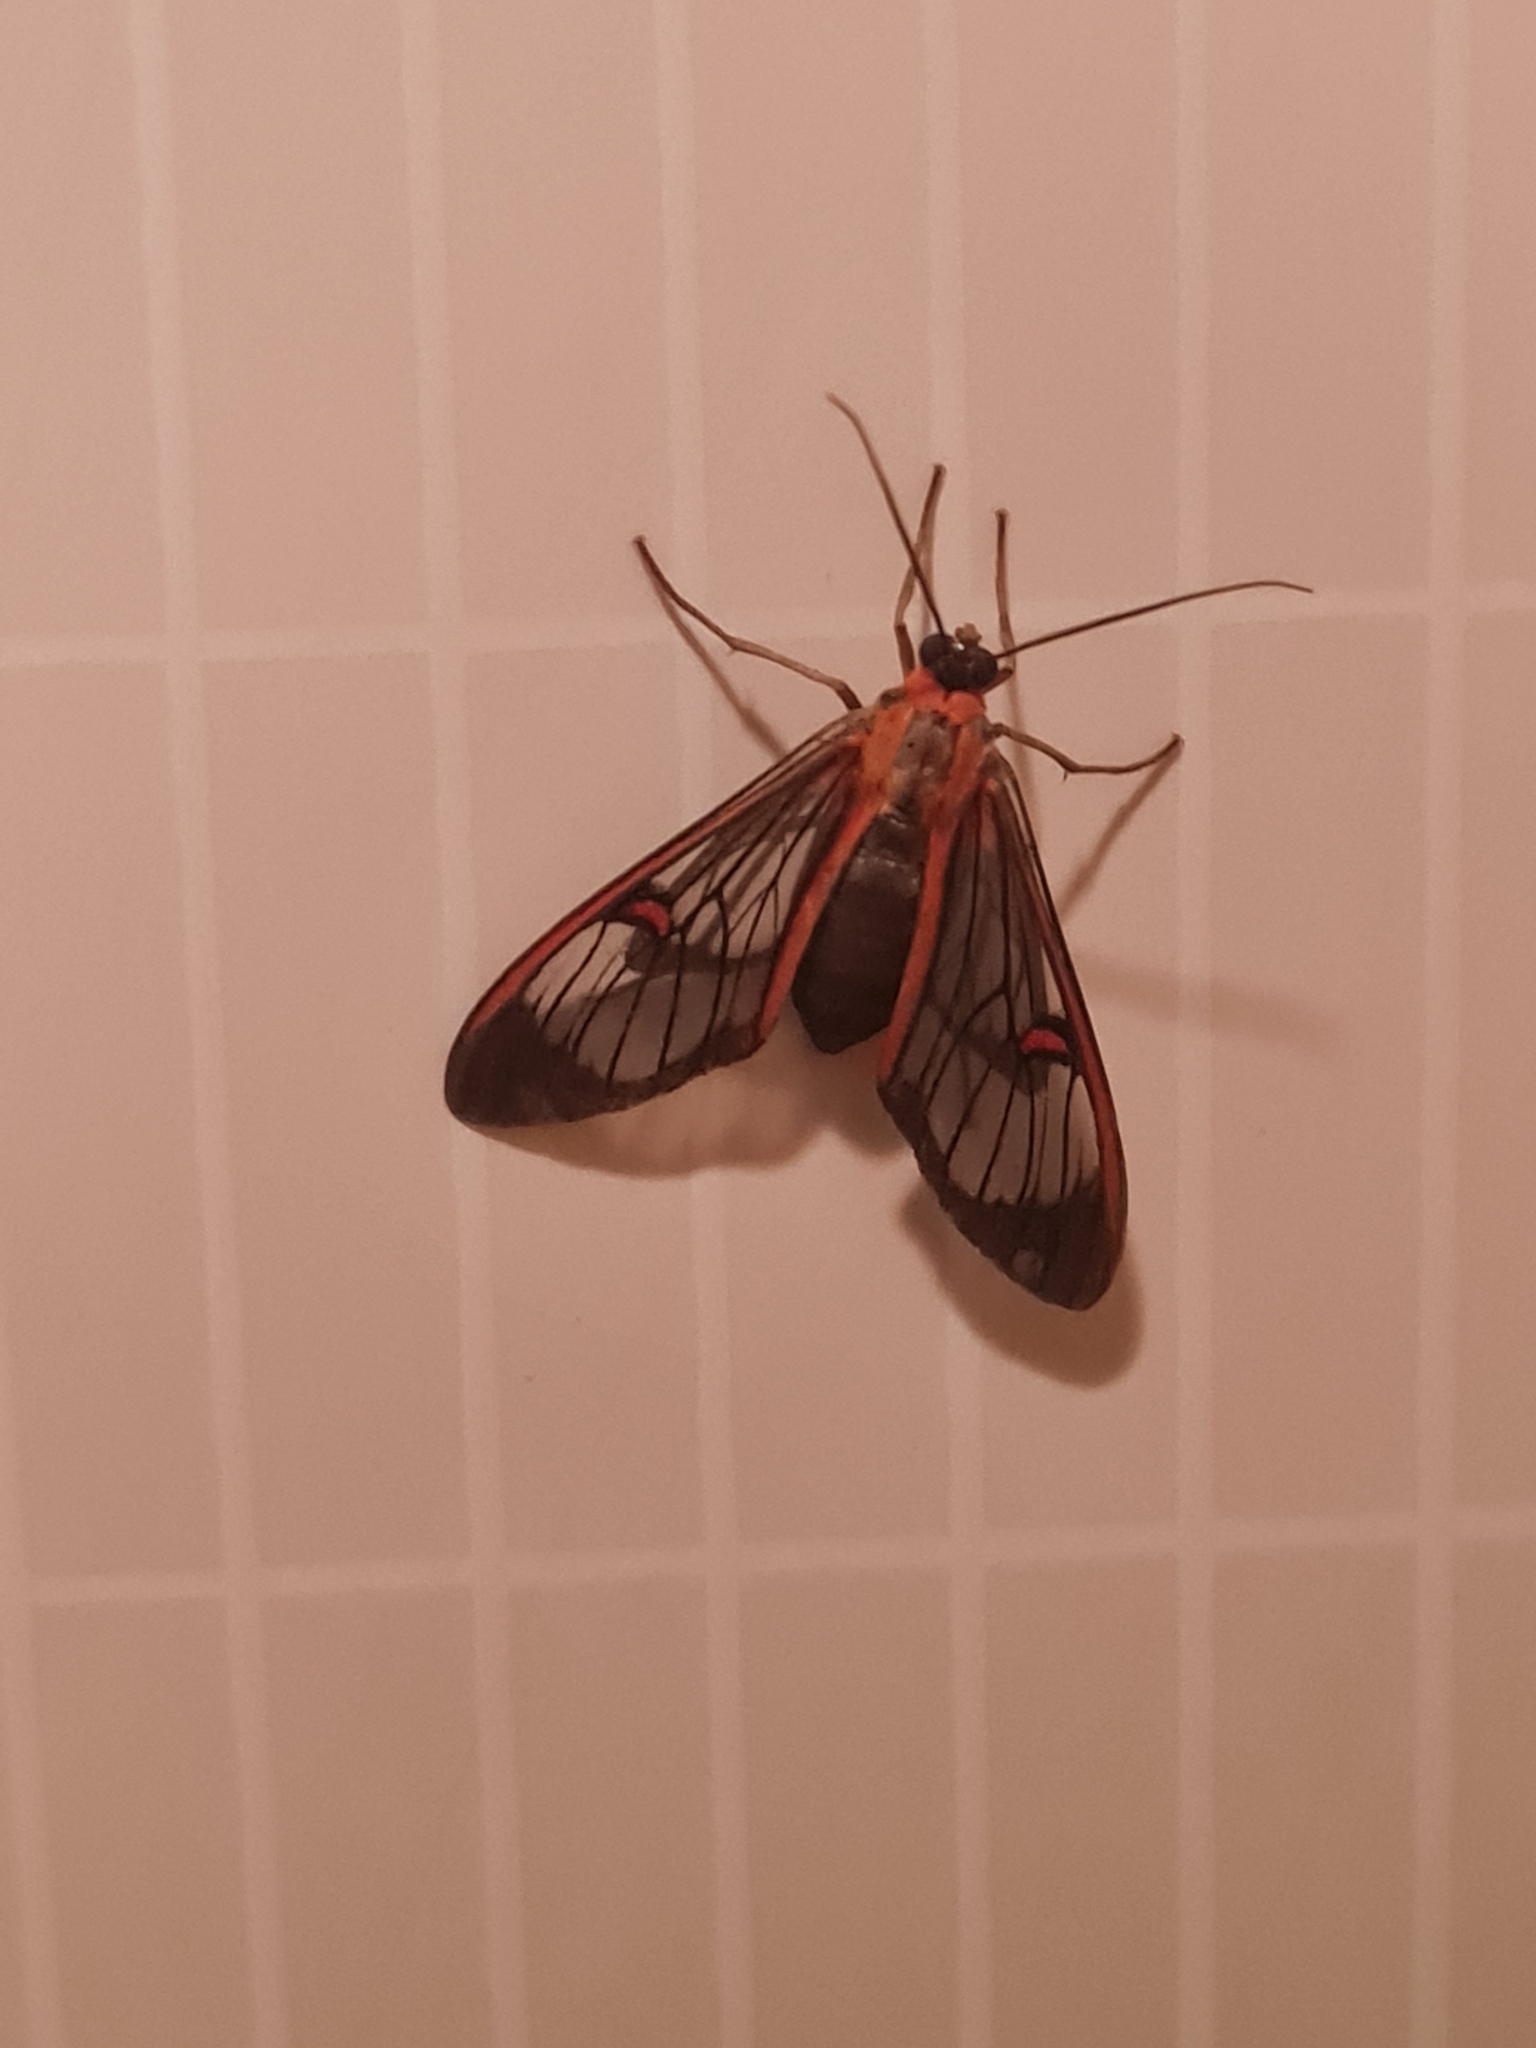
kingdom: Animalia
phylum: Arthropoda
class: Insecta
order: Lepidoptera
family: Erebidae
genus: Lepidoneiva
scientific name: Lepidoneiva erubescens
